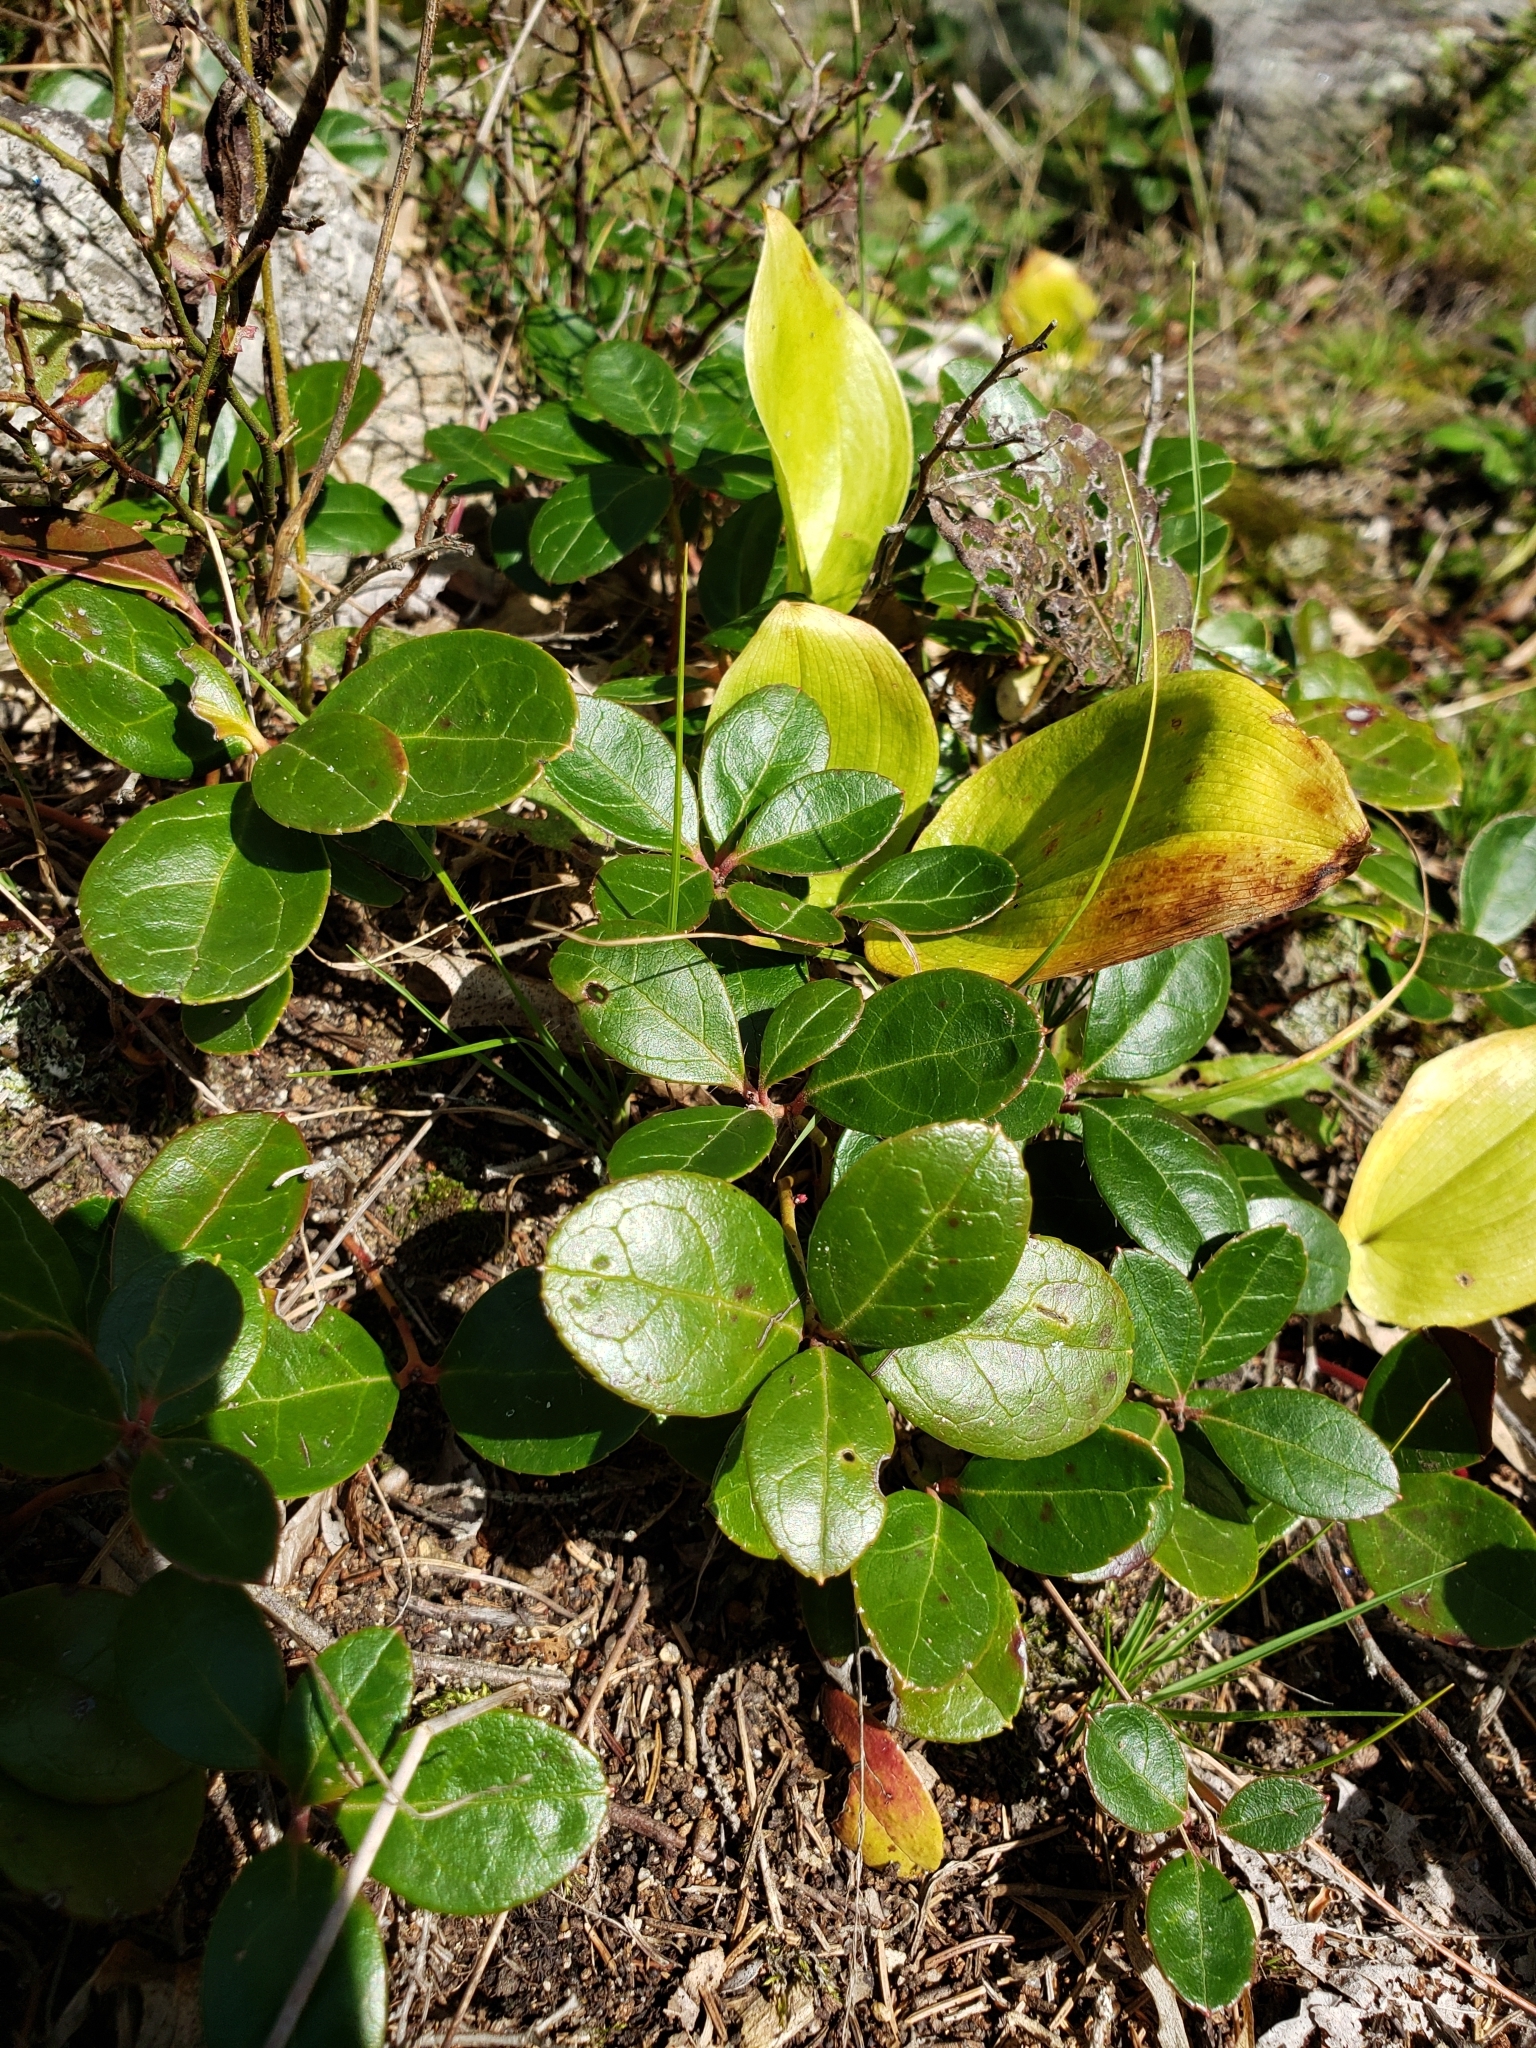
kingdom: Plantae
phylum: Tracheophyta
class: Magnoliopsida
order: Ericales
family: Ericaceae
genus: Gaultheria
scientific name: Gaultheria procumbens
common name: Checkerberry
